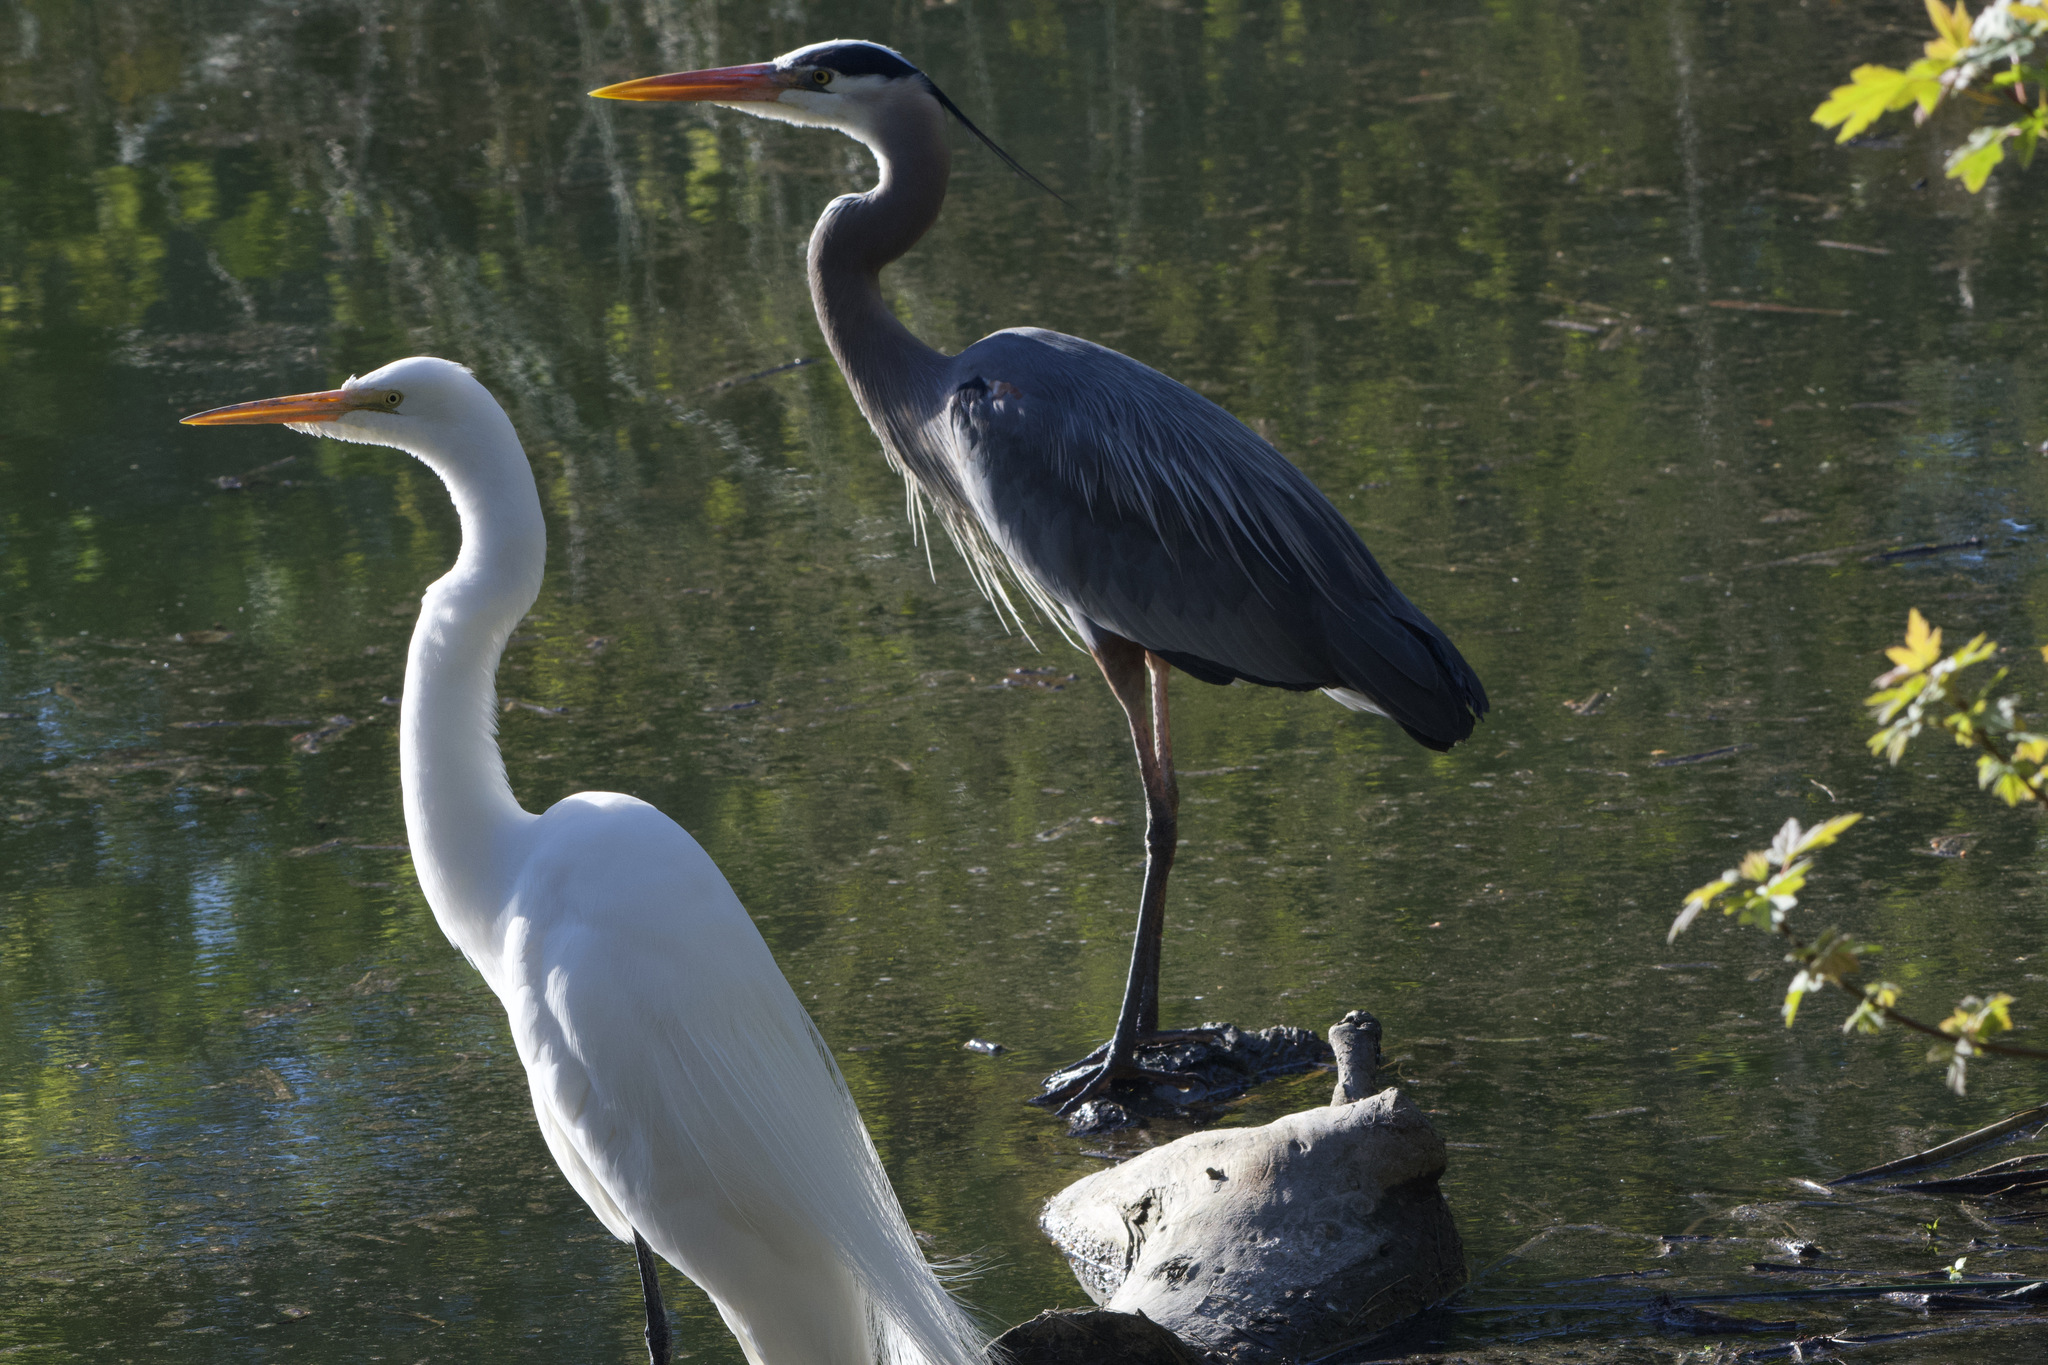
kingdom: Animalia
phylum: Chordata
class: Aves
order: Pelecaniformes
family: Ardeidae
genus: Ardea
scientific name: Ardea alba
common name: Great egret
